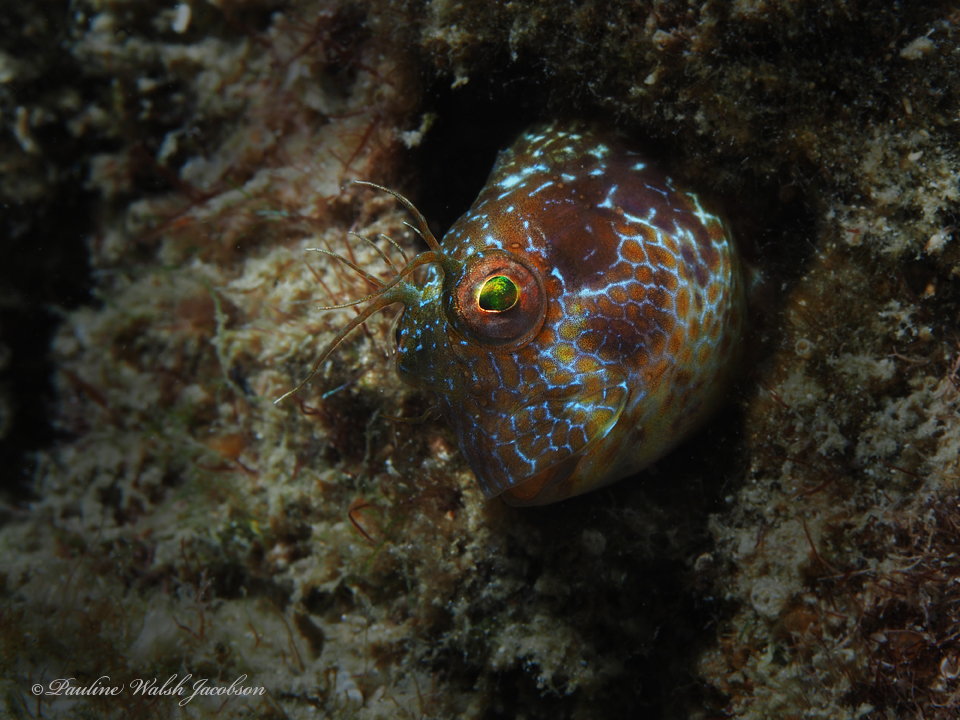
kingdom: Animalia
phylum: Chordata
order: Perciformes
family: Blenniidae
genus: Parablennius
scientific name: Parablennius marmoreus
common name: Seaweed blenny
